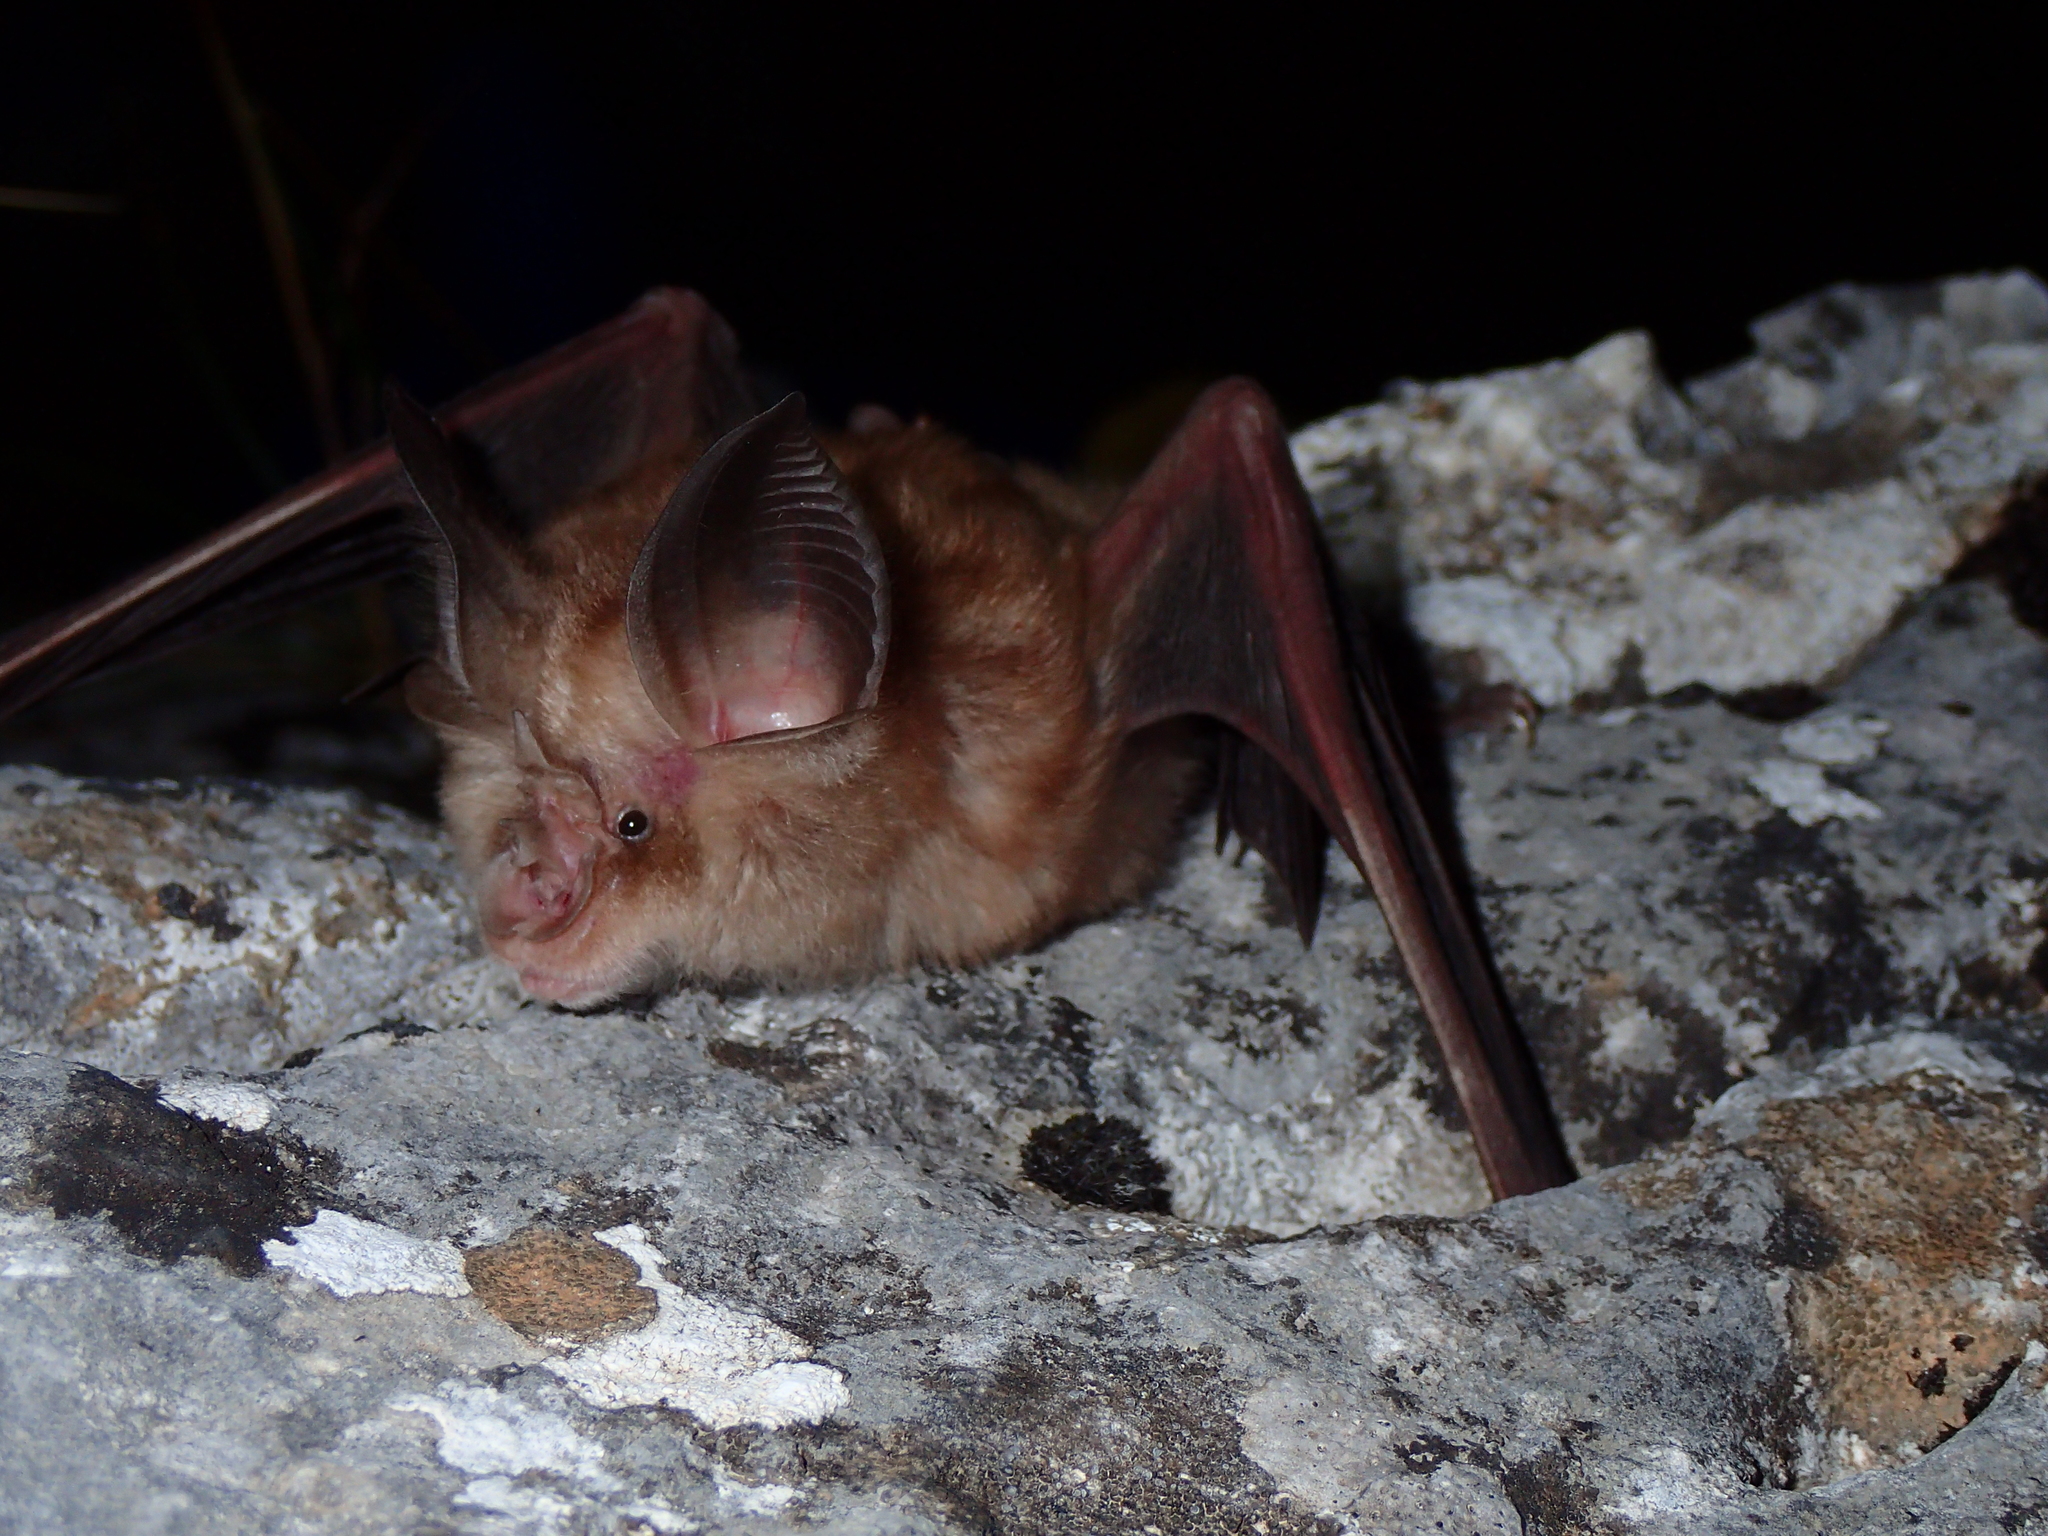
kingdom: Animalia
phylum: Chordata
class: Mammalia
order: Chiroptera
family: Rhinolophidae
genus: Rhinolophus
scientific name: Rhinolophus euryale
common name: Mediterranean horseshoe bat
